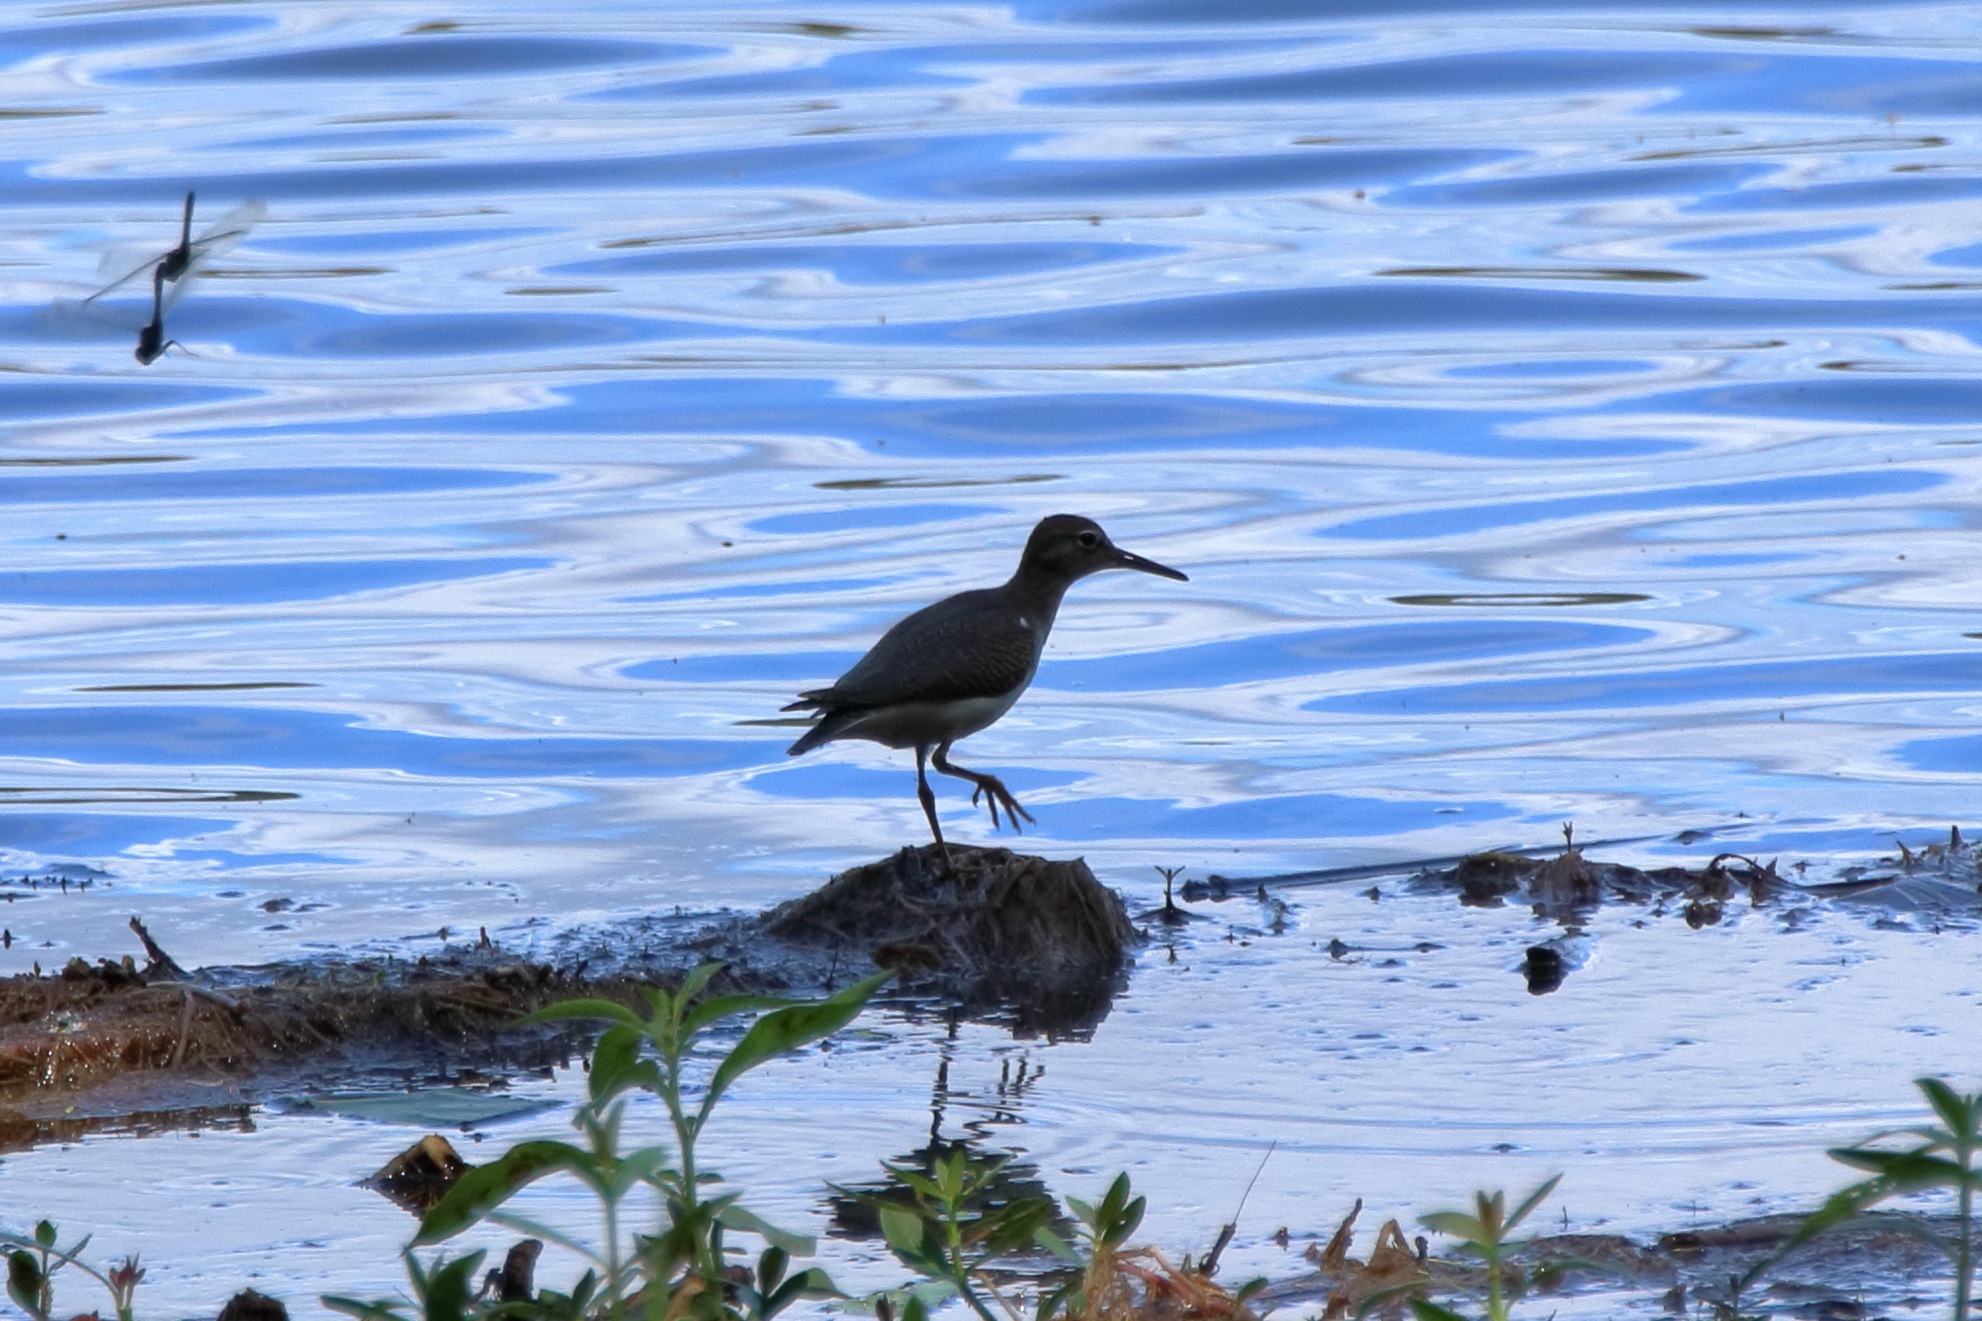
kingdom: Animalia
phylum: Chordata
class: Aves
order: Charadriiformes
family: Scolopacidae
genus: Actitis
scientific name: Actitis macularius
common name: Spotted sandpiper
